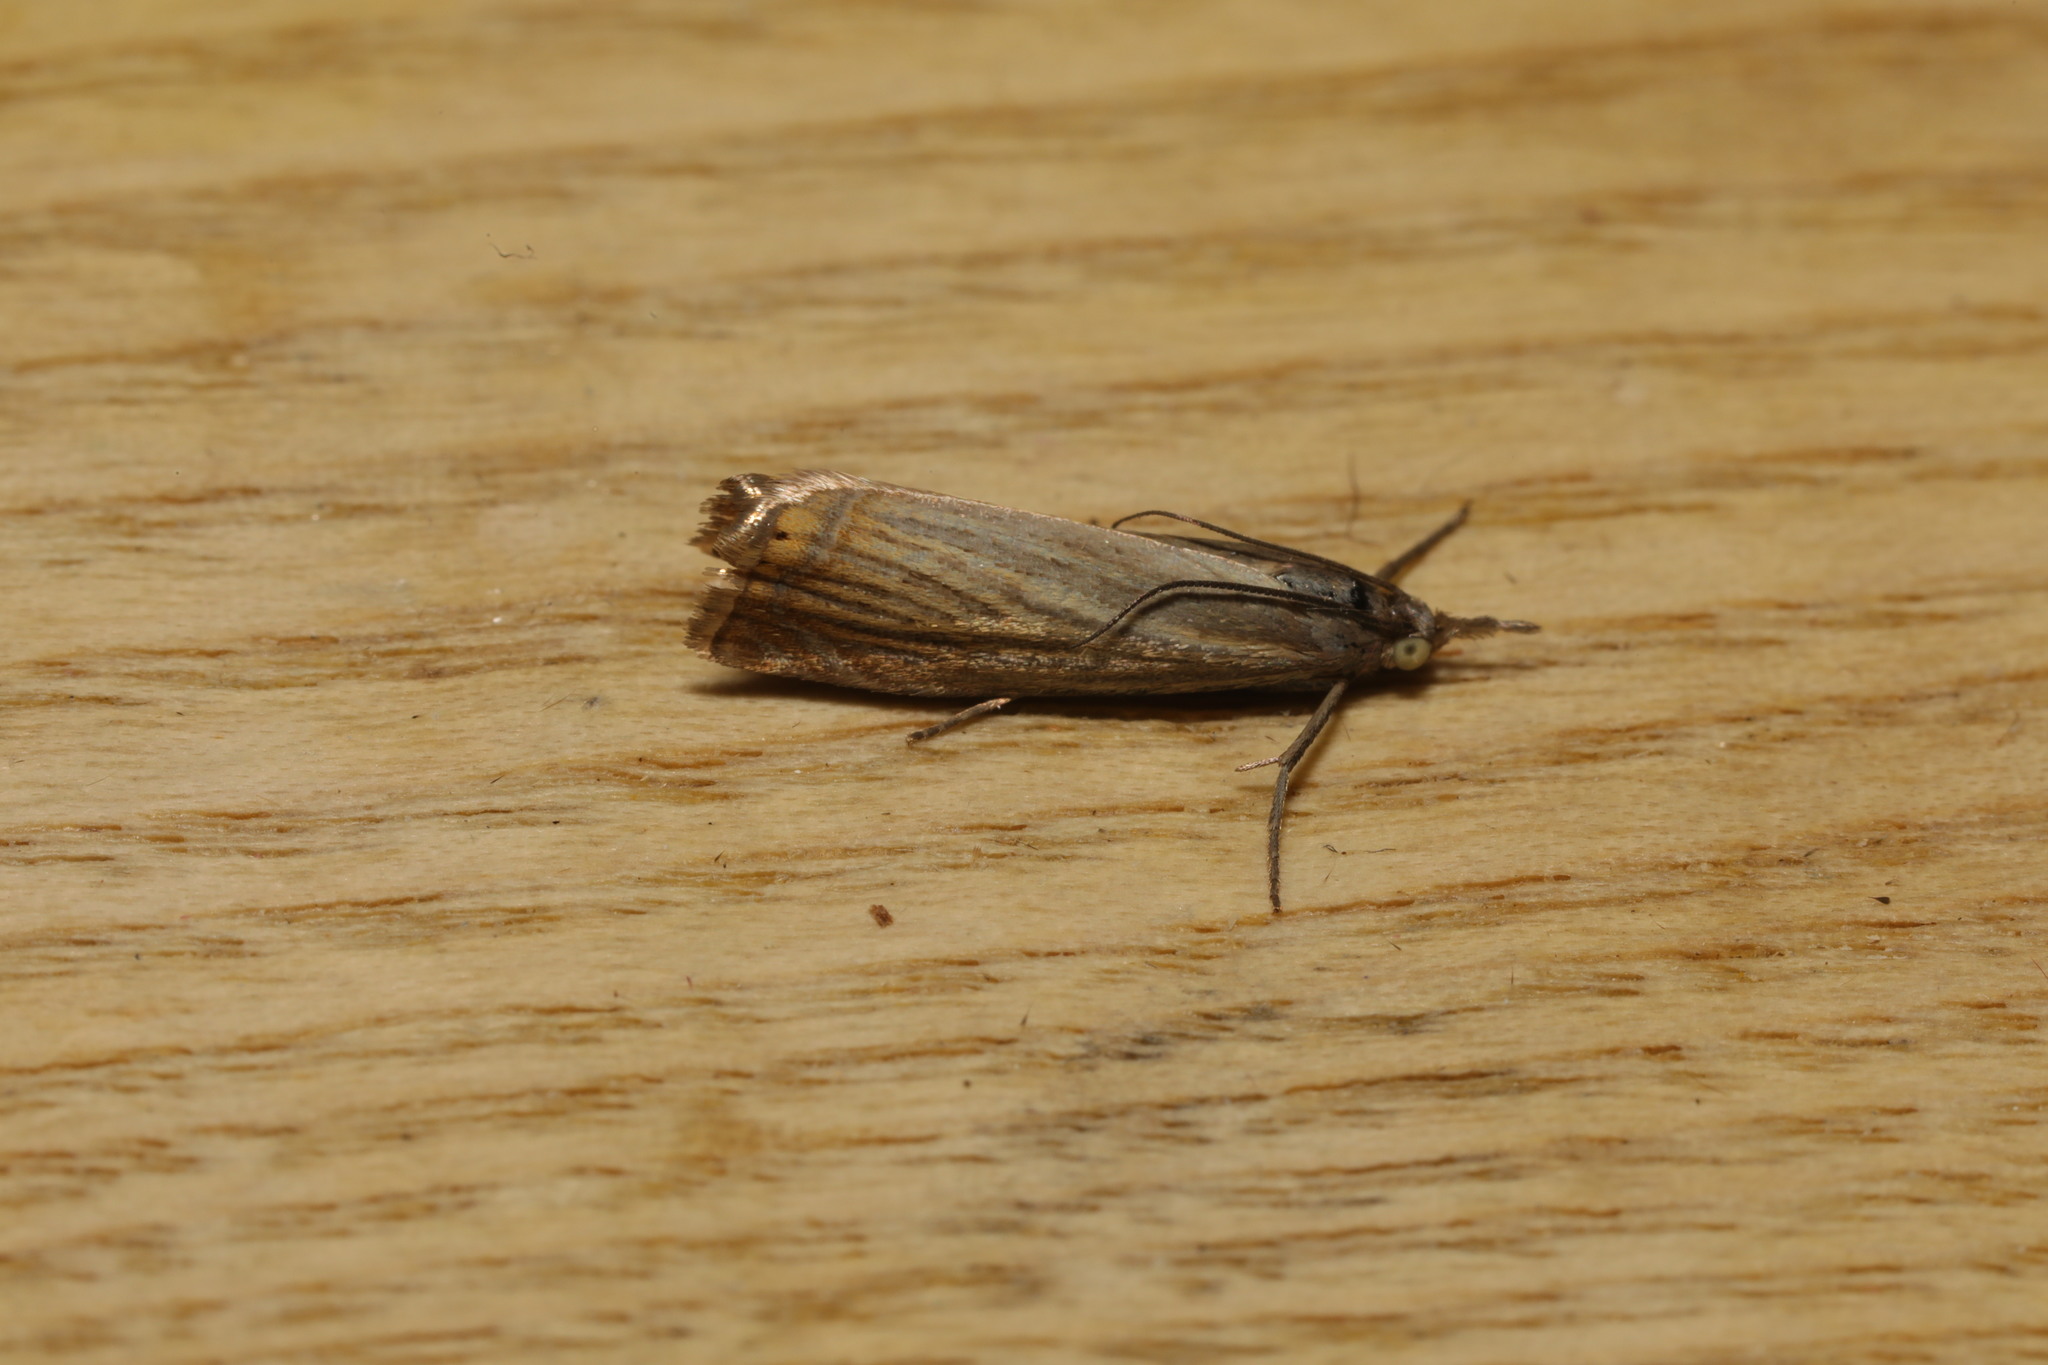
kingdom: Animalia
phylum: Arthropoda
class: Insecta
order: Lepidoptera
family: Crambidae
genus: Chrysoteuchia
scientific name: Chrysoteuchia culmella
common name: Garden grass-veneer
